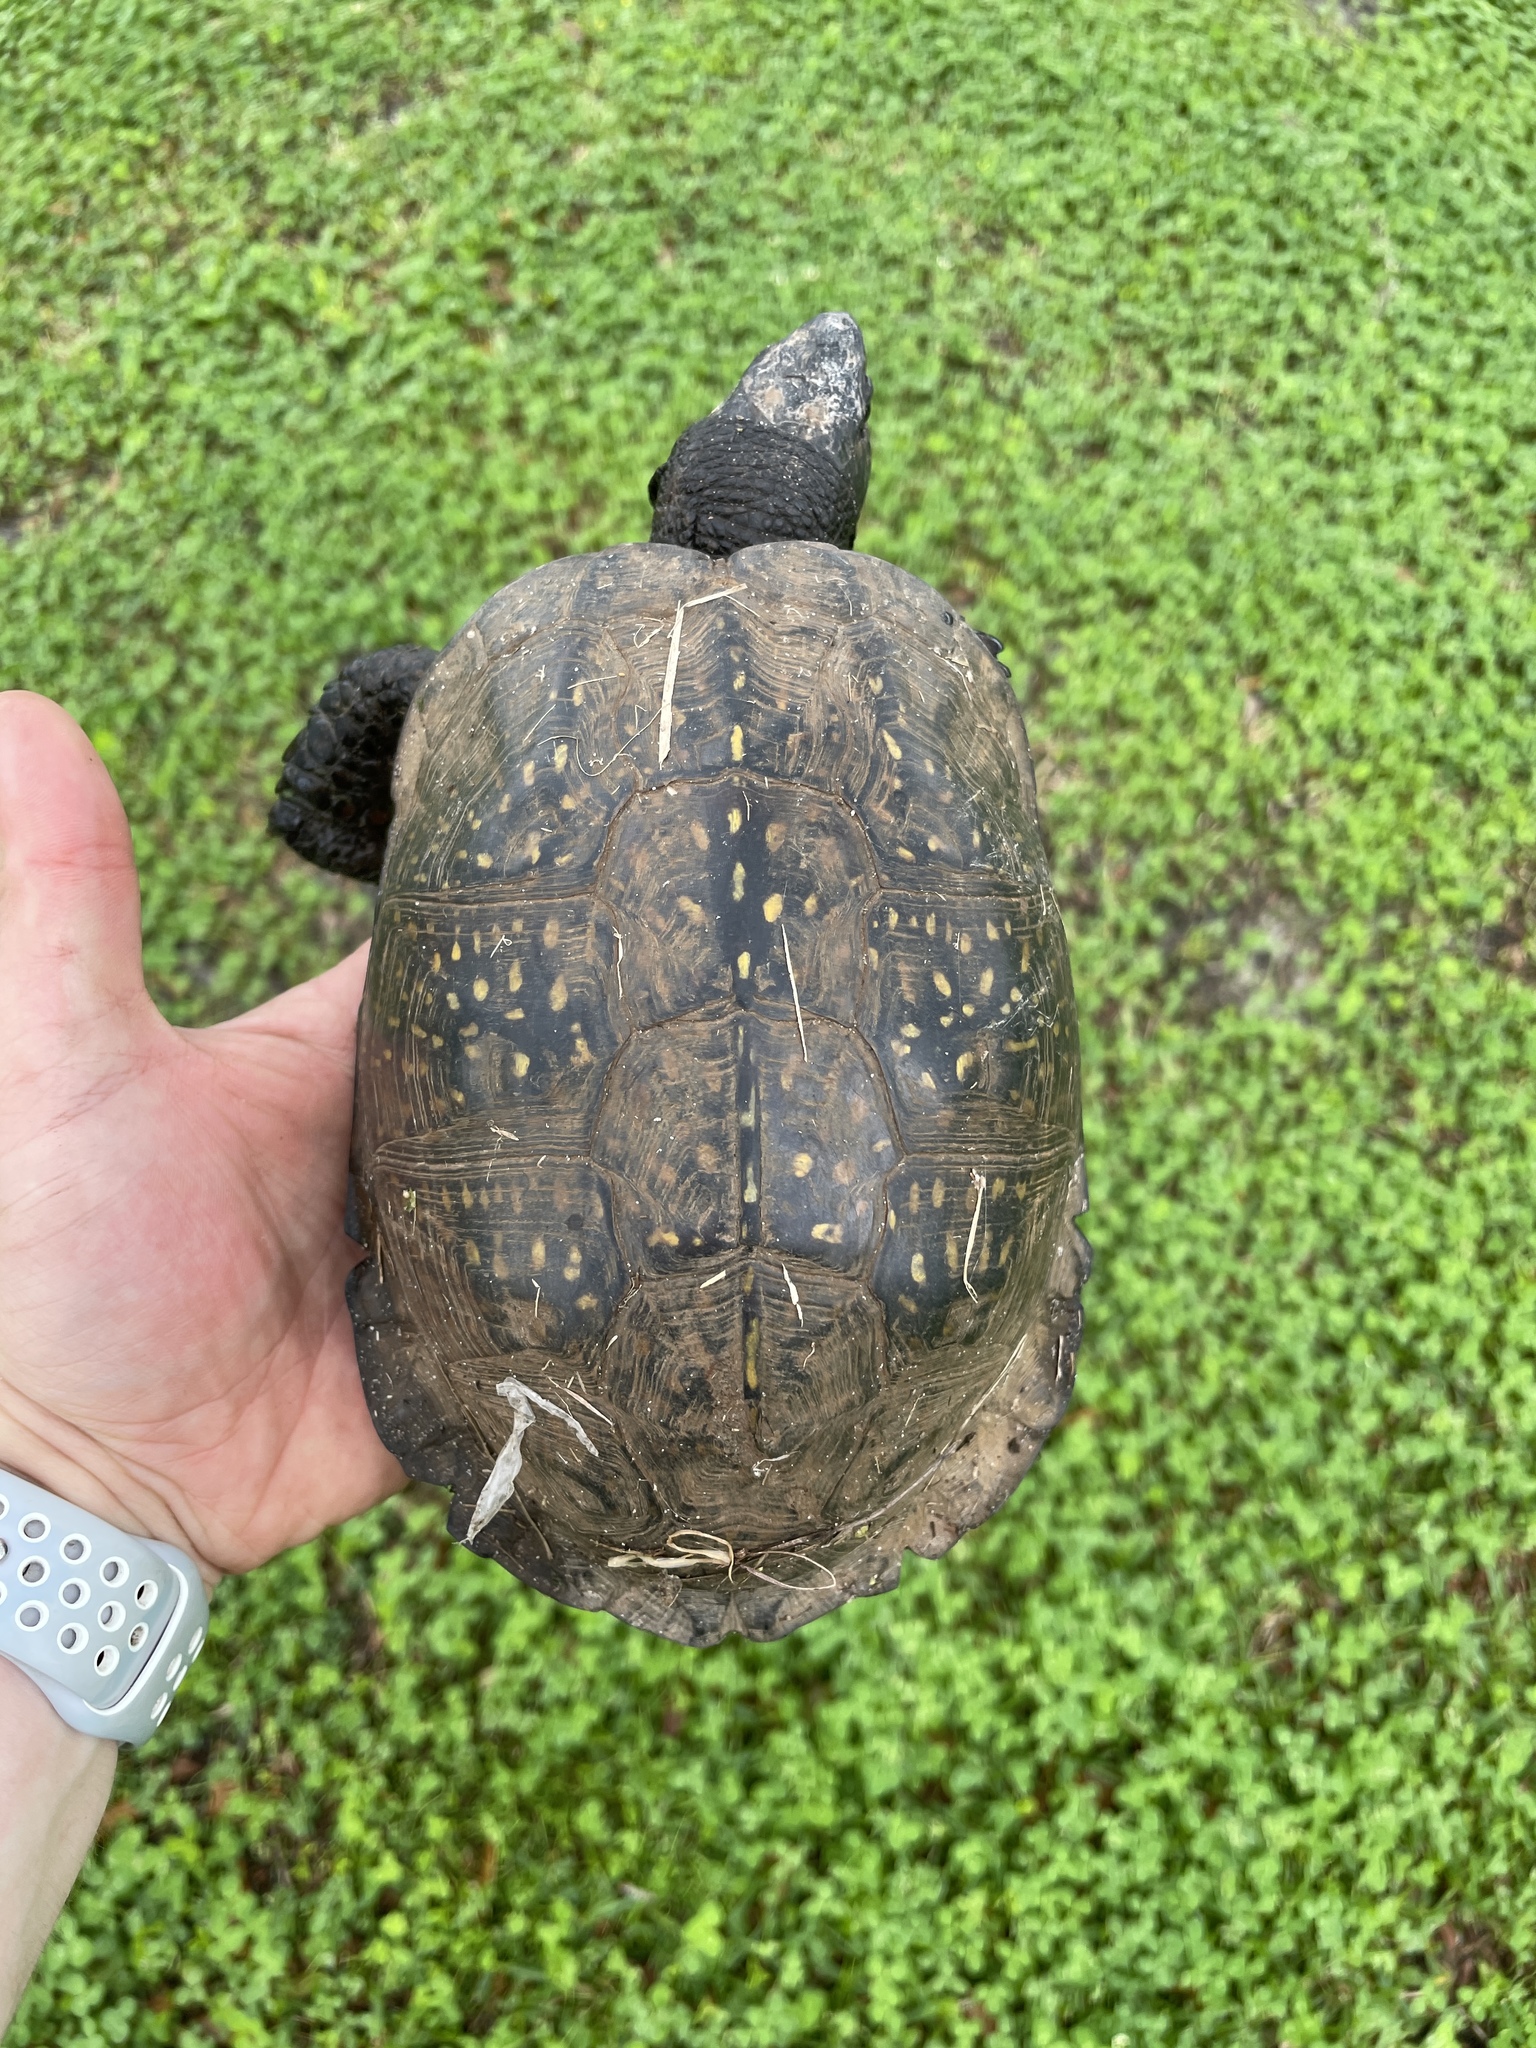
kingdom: Animalia
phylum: Chordata
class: Testudines
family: Emydidae
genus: Terrapene
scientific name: Terrapene carolina
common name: Common box turtle
